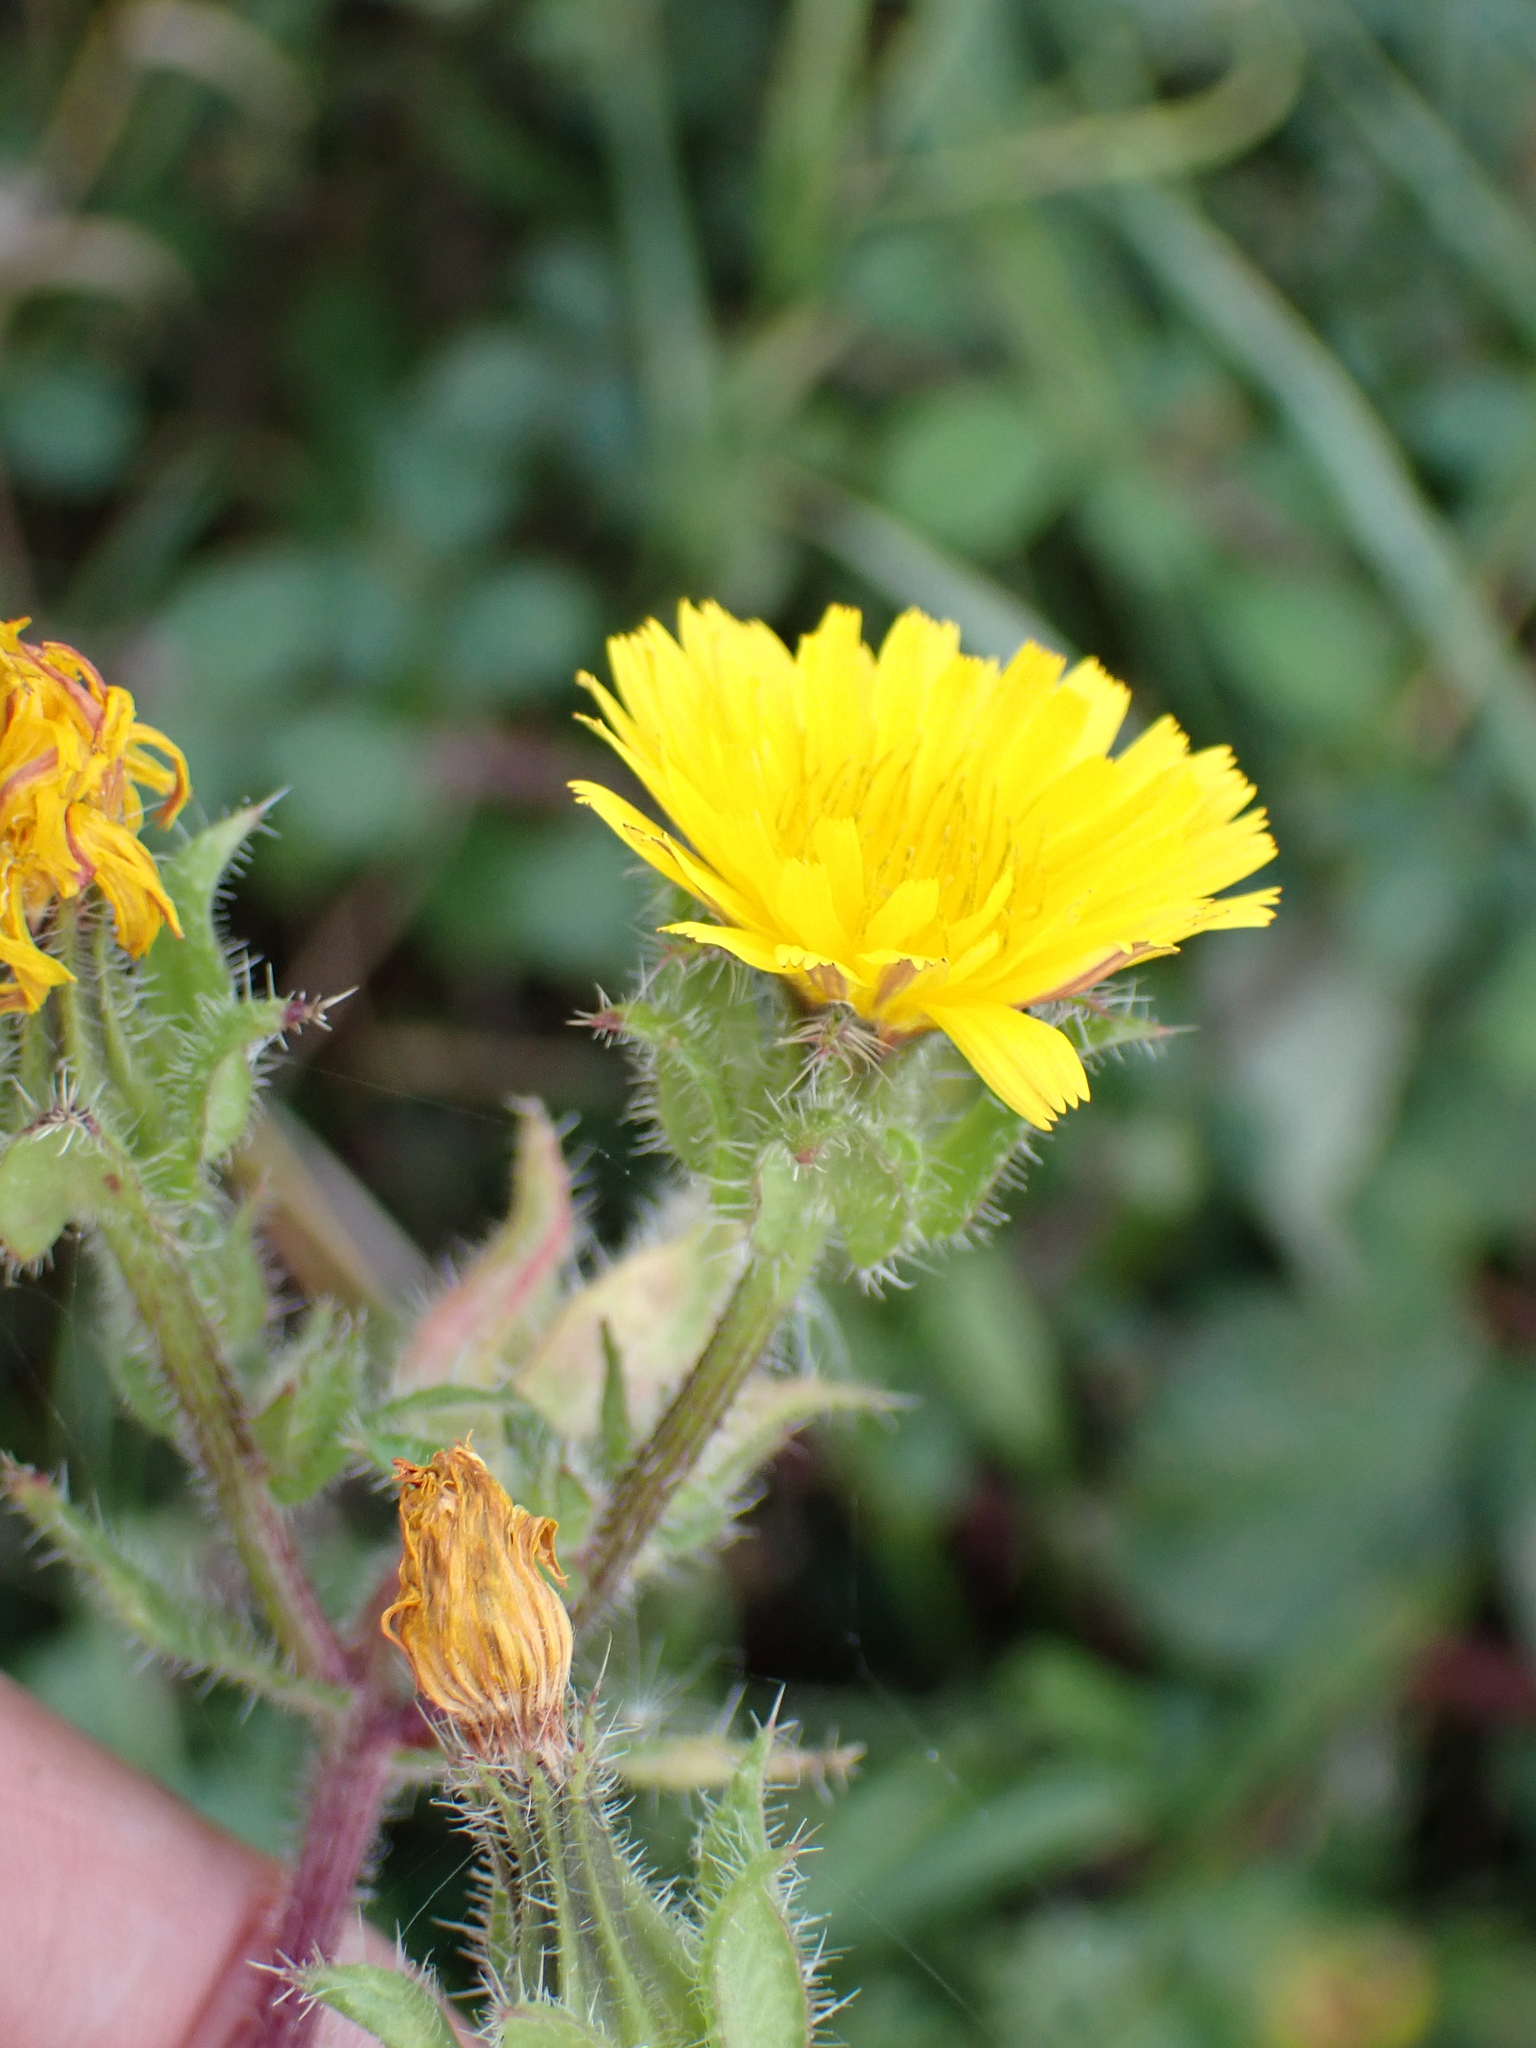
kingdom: Plantae
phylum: Tracheophyta
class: Magnoliopsida
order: Asterales
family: Asteraceae
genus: Helminthotheca
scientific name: Helminthotheca echioides
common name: Ox-tongue
